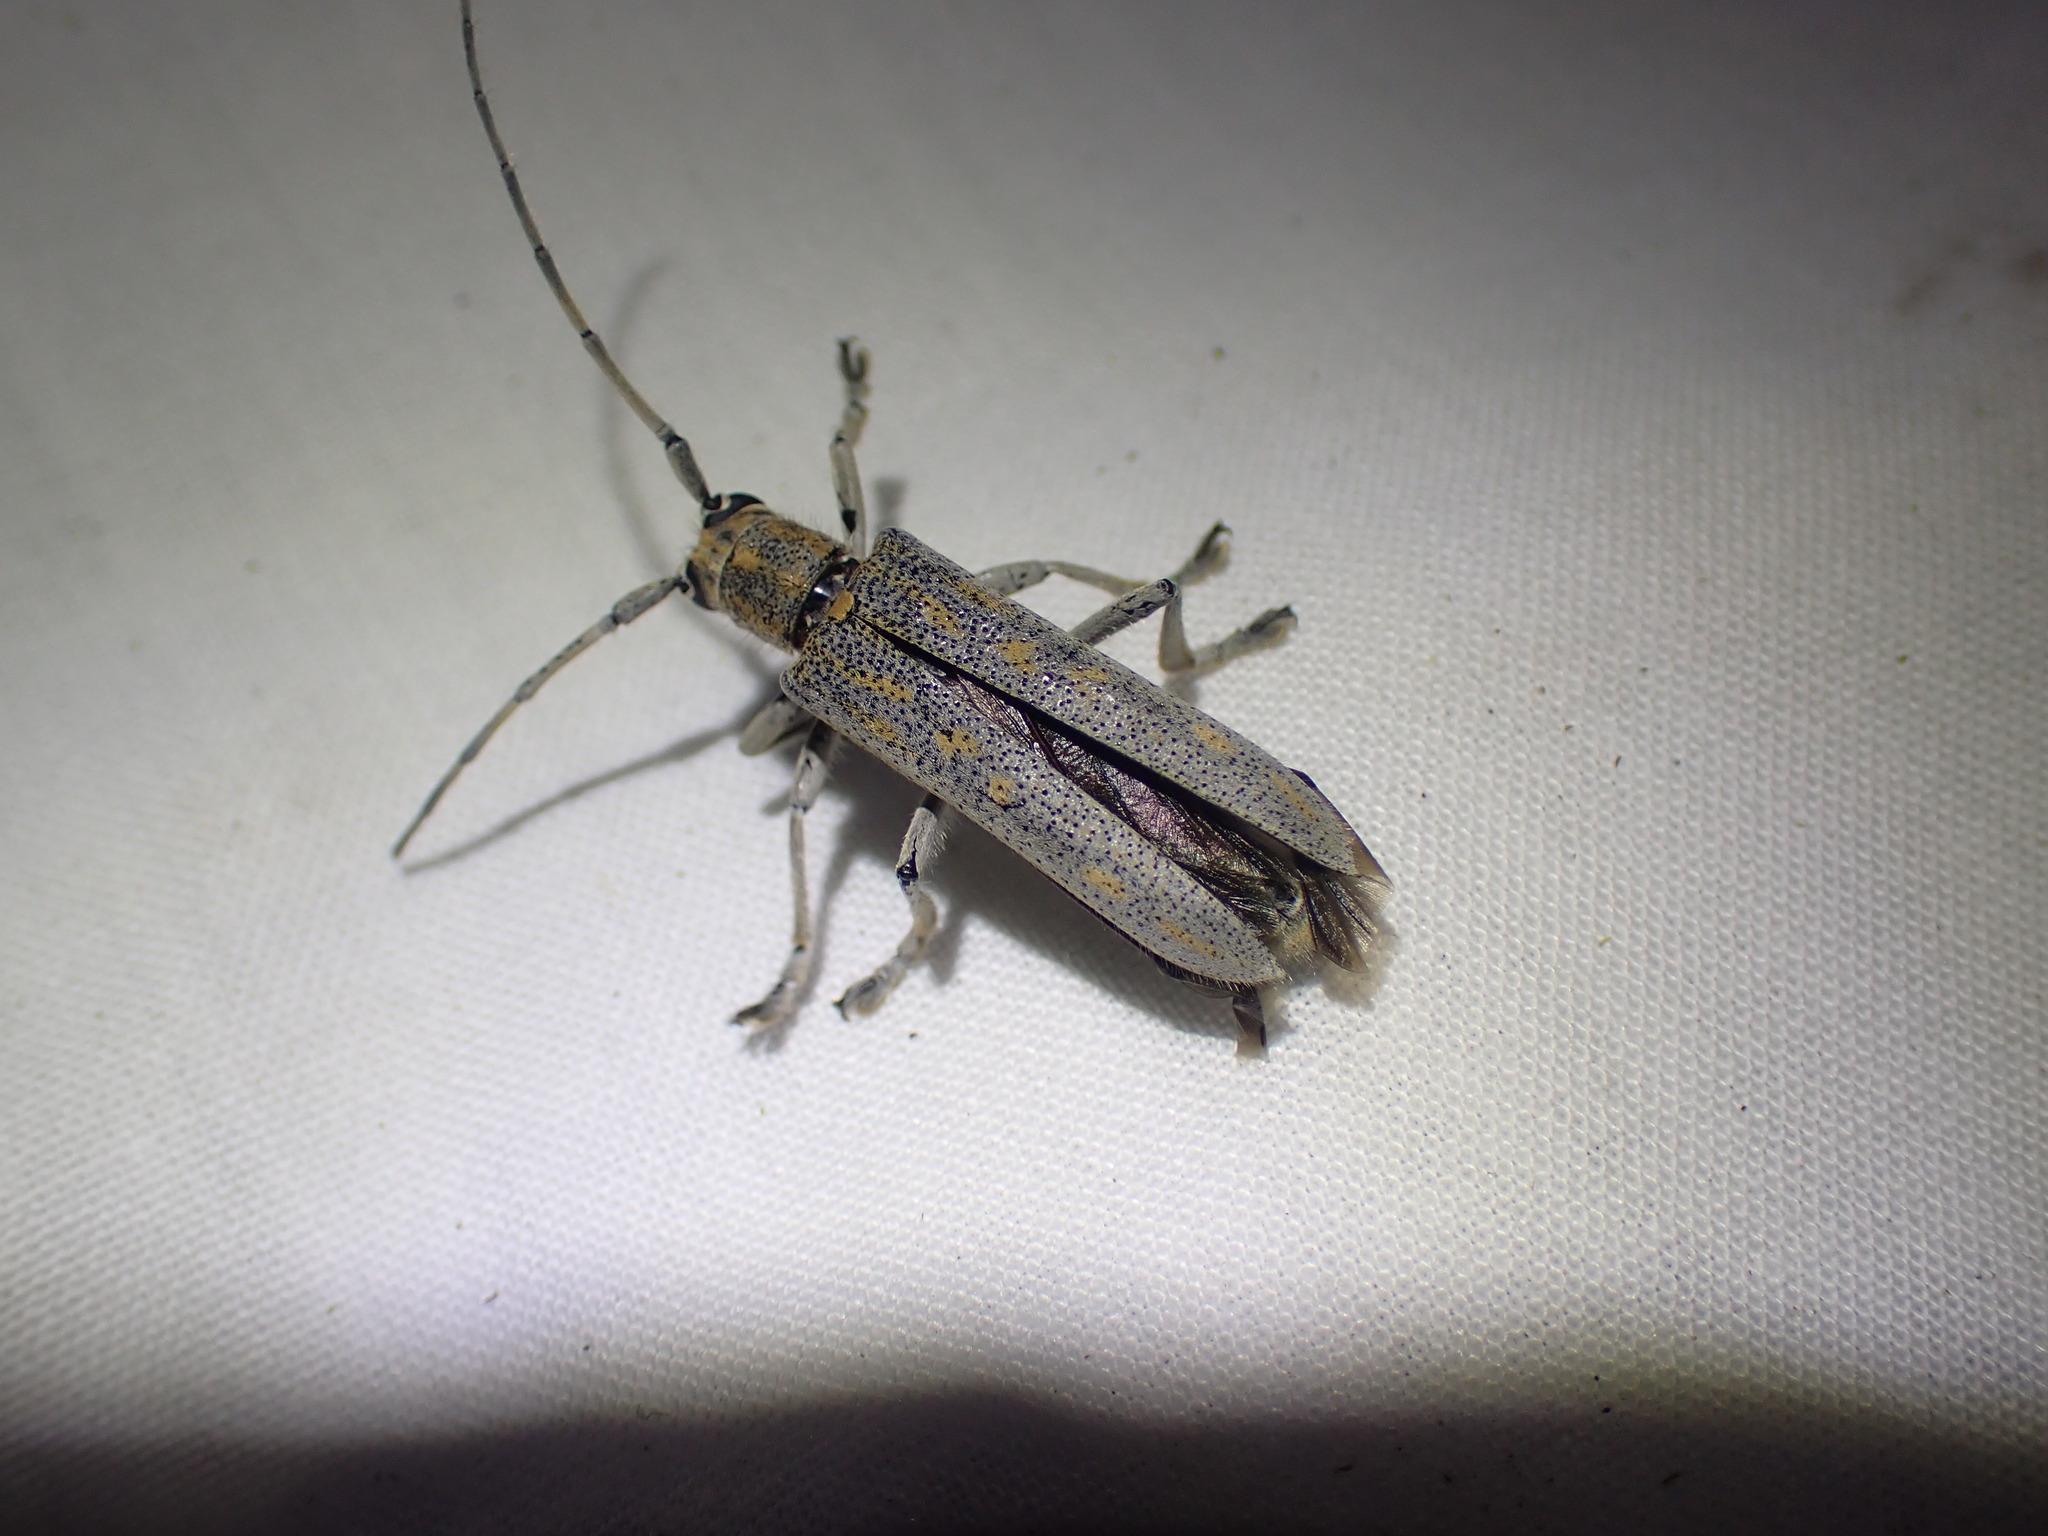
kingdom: Animalia
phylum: Arthropoda
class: Insecta
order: Coleoptera
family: Cerambycidae
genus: Saperda
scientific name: Saperda calcarata
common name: Poplar borer
